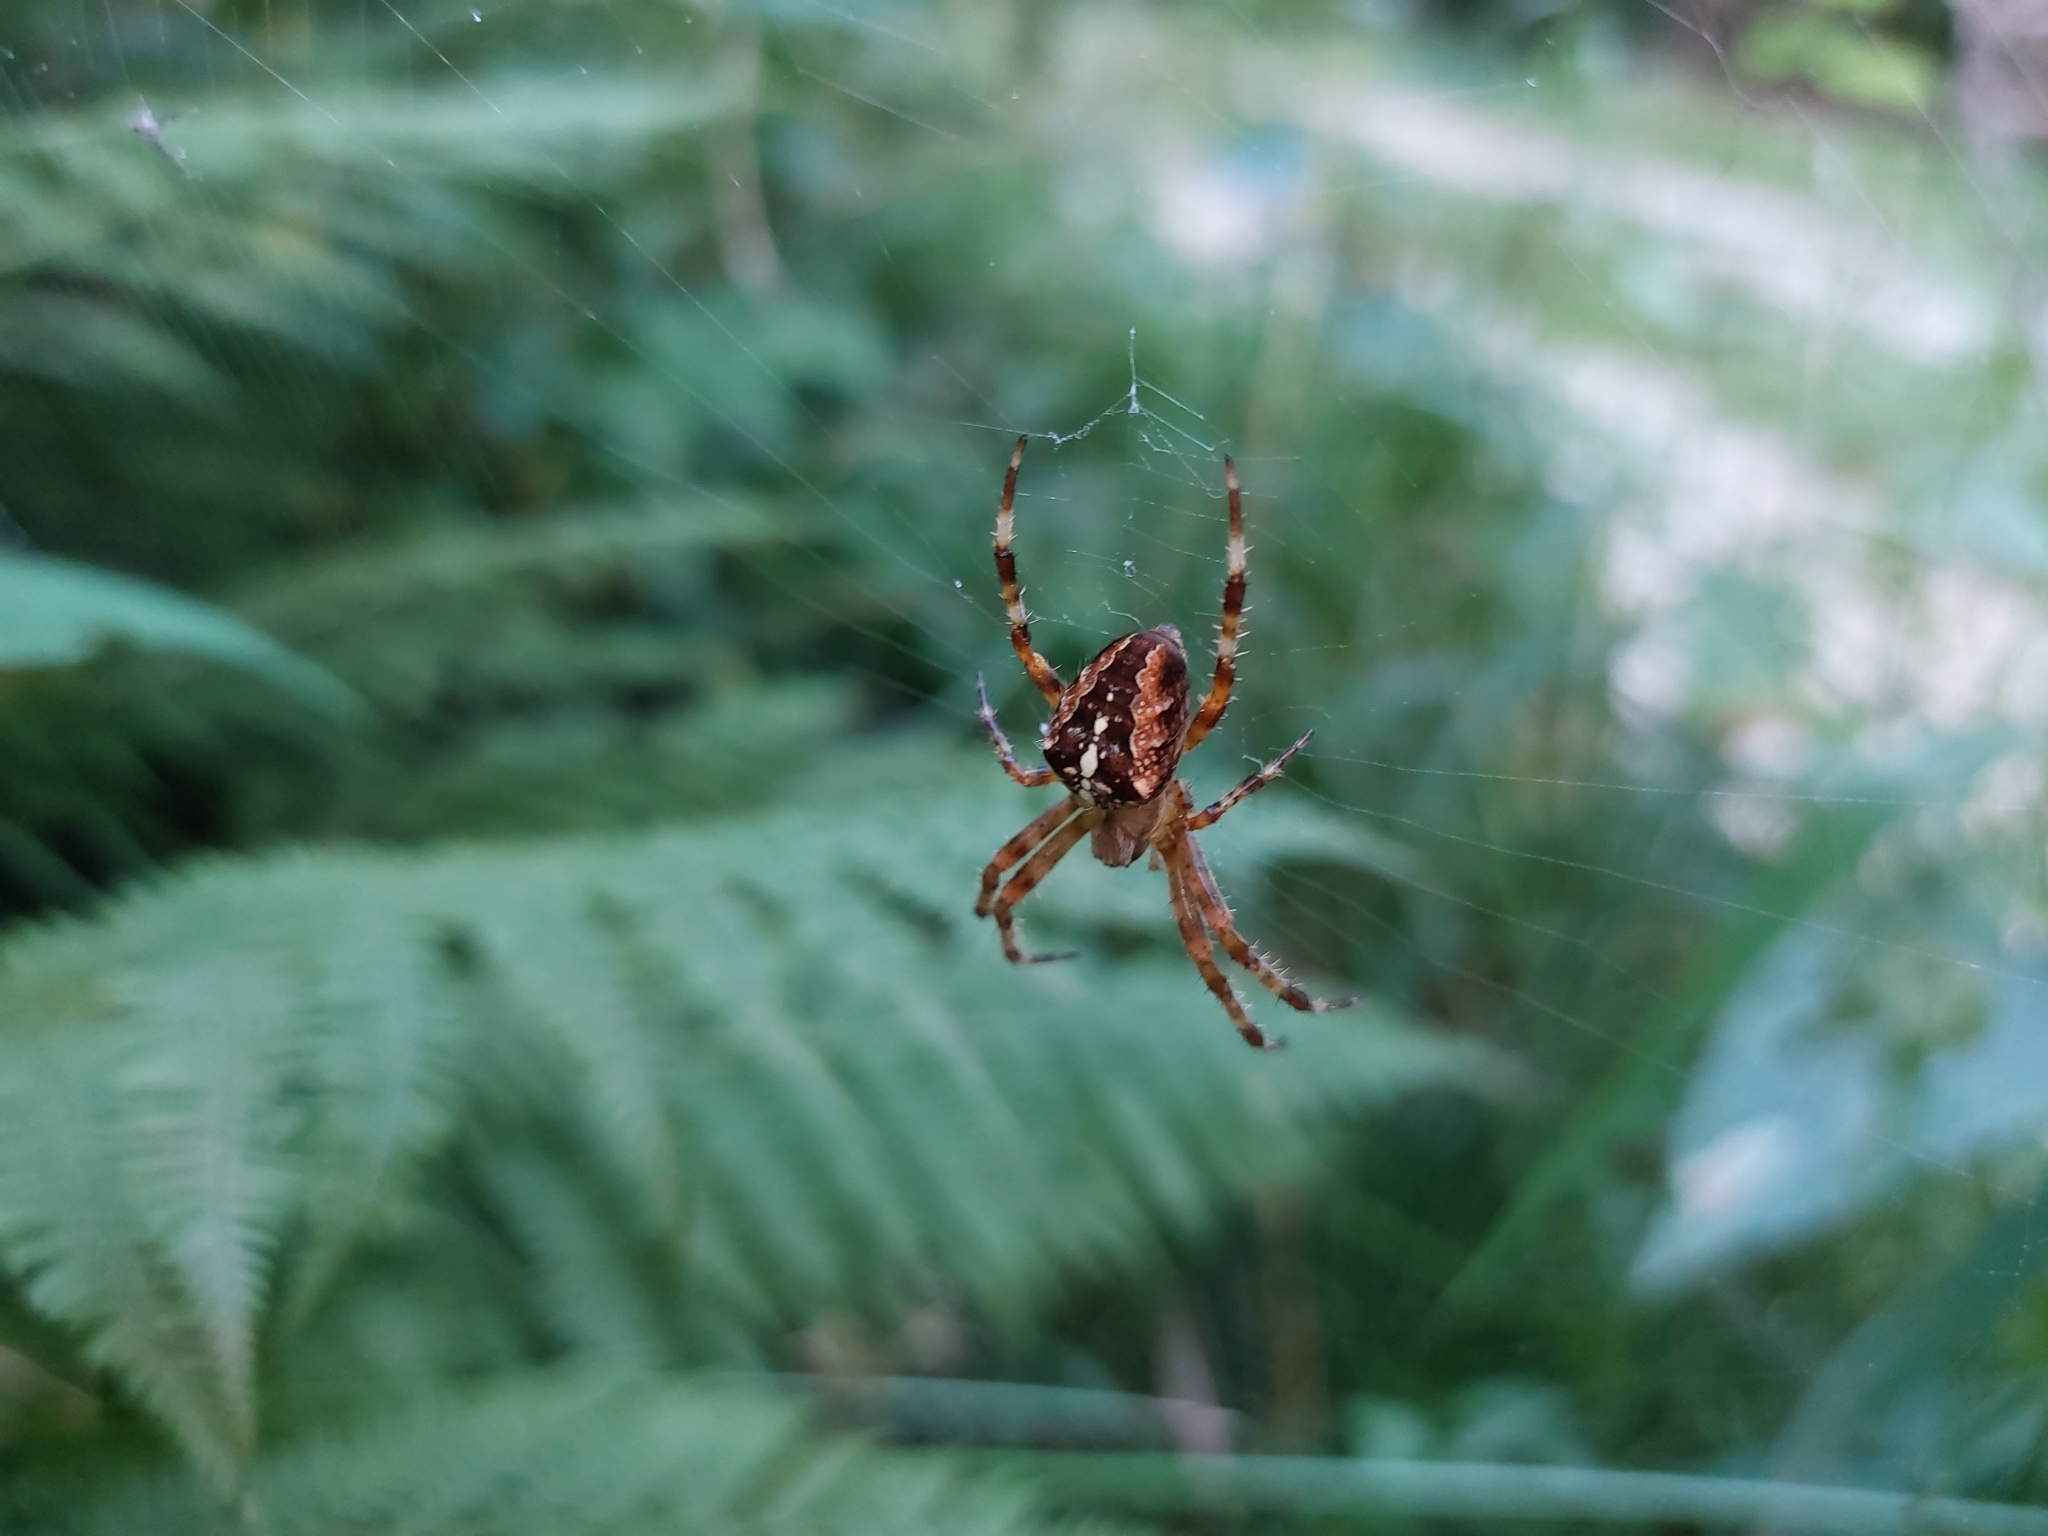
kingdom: Animalia
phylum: Arthropoda
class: Arachnida
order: Araneae
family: Araneidae
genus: Araneus
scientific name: Araneus diadematus
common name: Cross orbweaver
